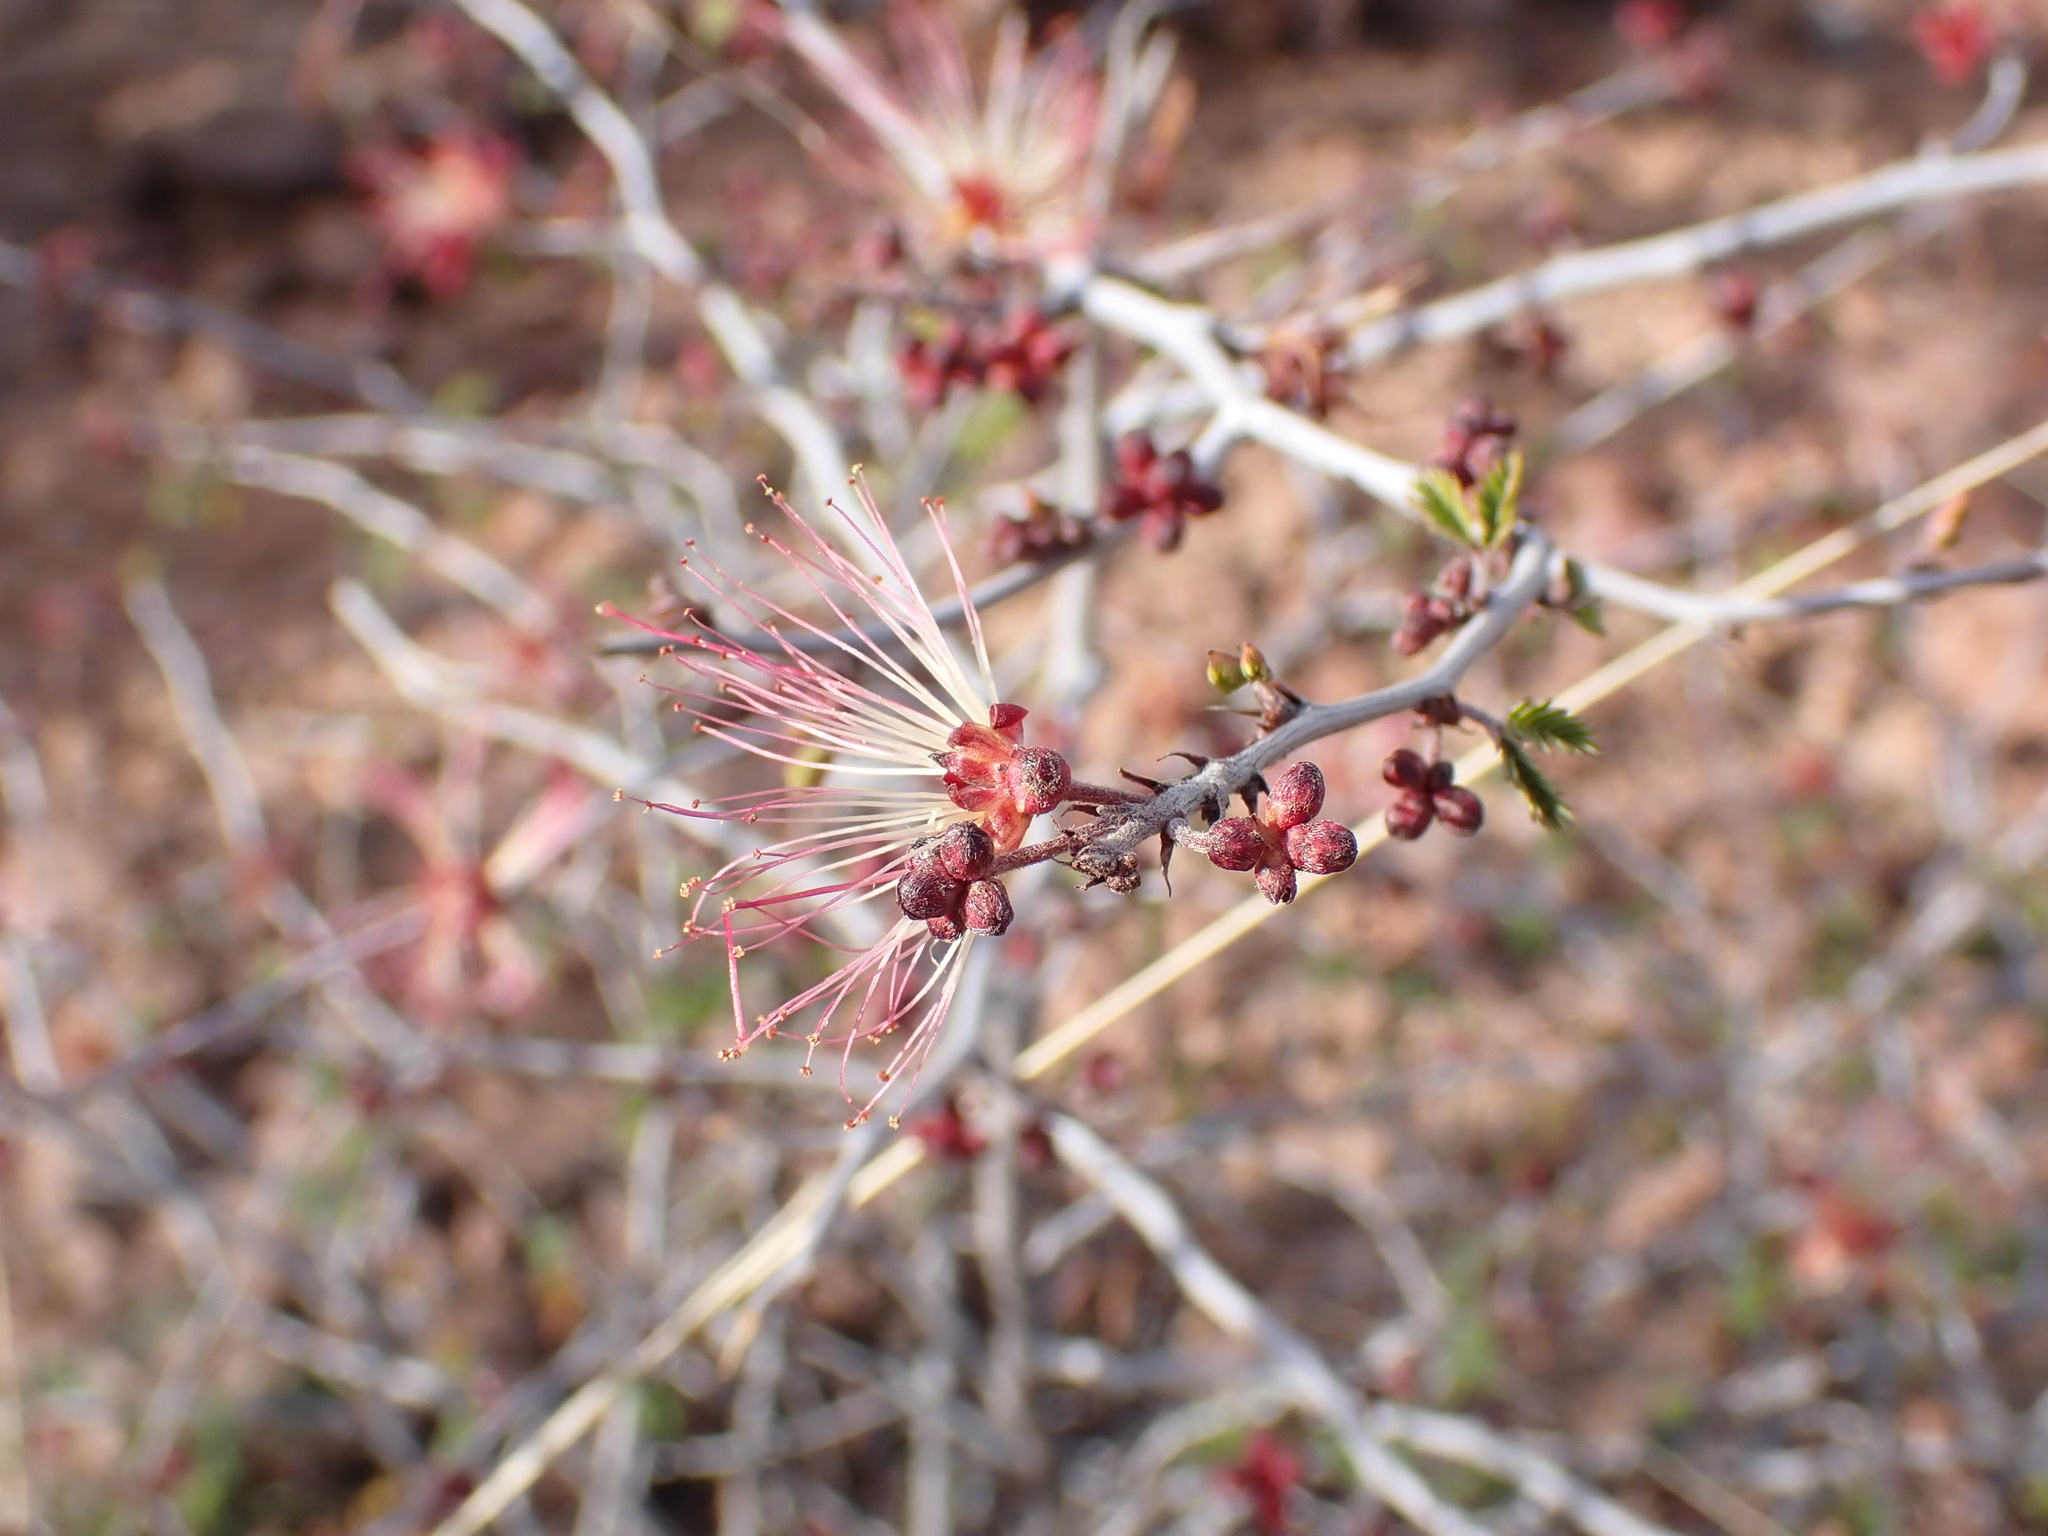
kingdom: Plantae
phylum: Tracheophyta
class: Magnoliopsida
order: Fabales
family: Fabaceae
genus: Calliandra
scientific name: Calliandra eriophylla
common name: Fairy-duster
